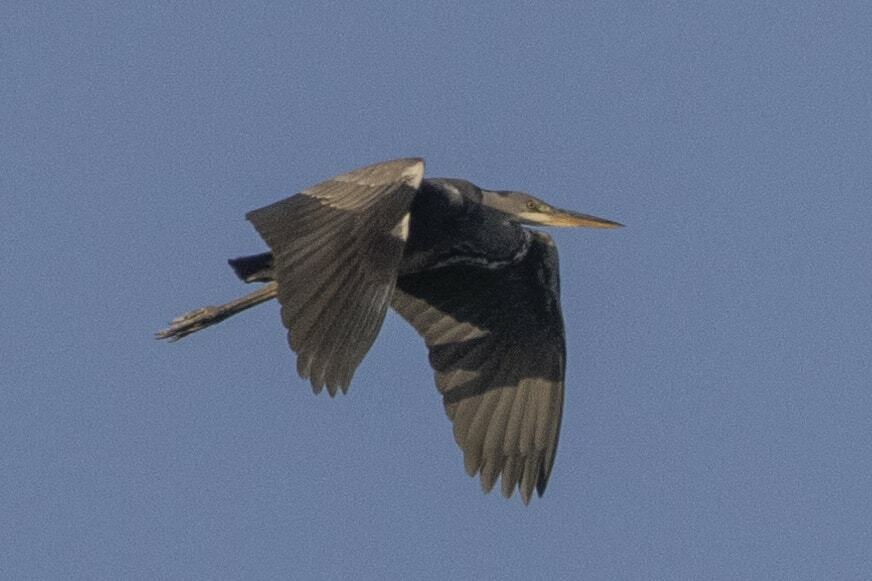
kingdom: Animalia
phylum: Chordata
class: Aves
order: Pelecaniformes
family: Ardeidae
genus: Ardea
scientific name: Ardea cinerea
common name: Grey heron
